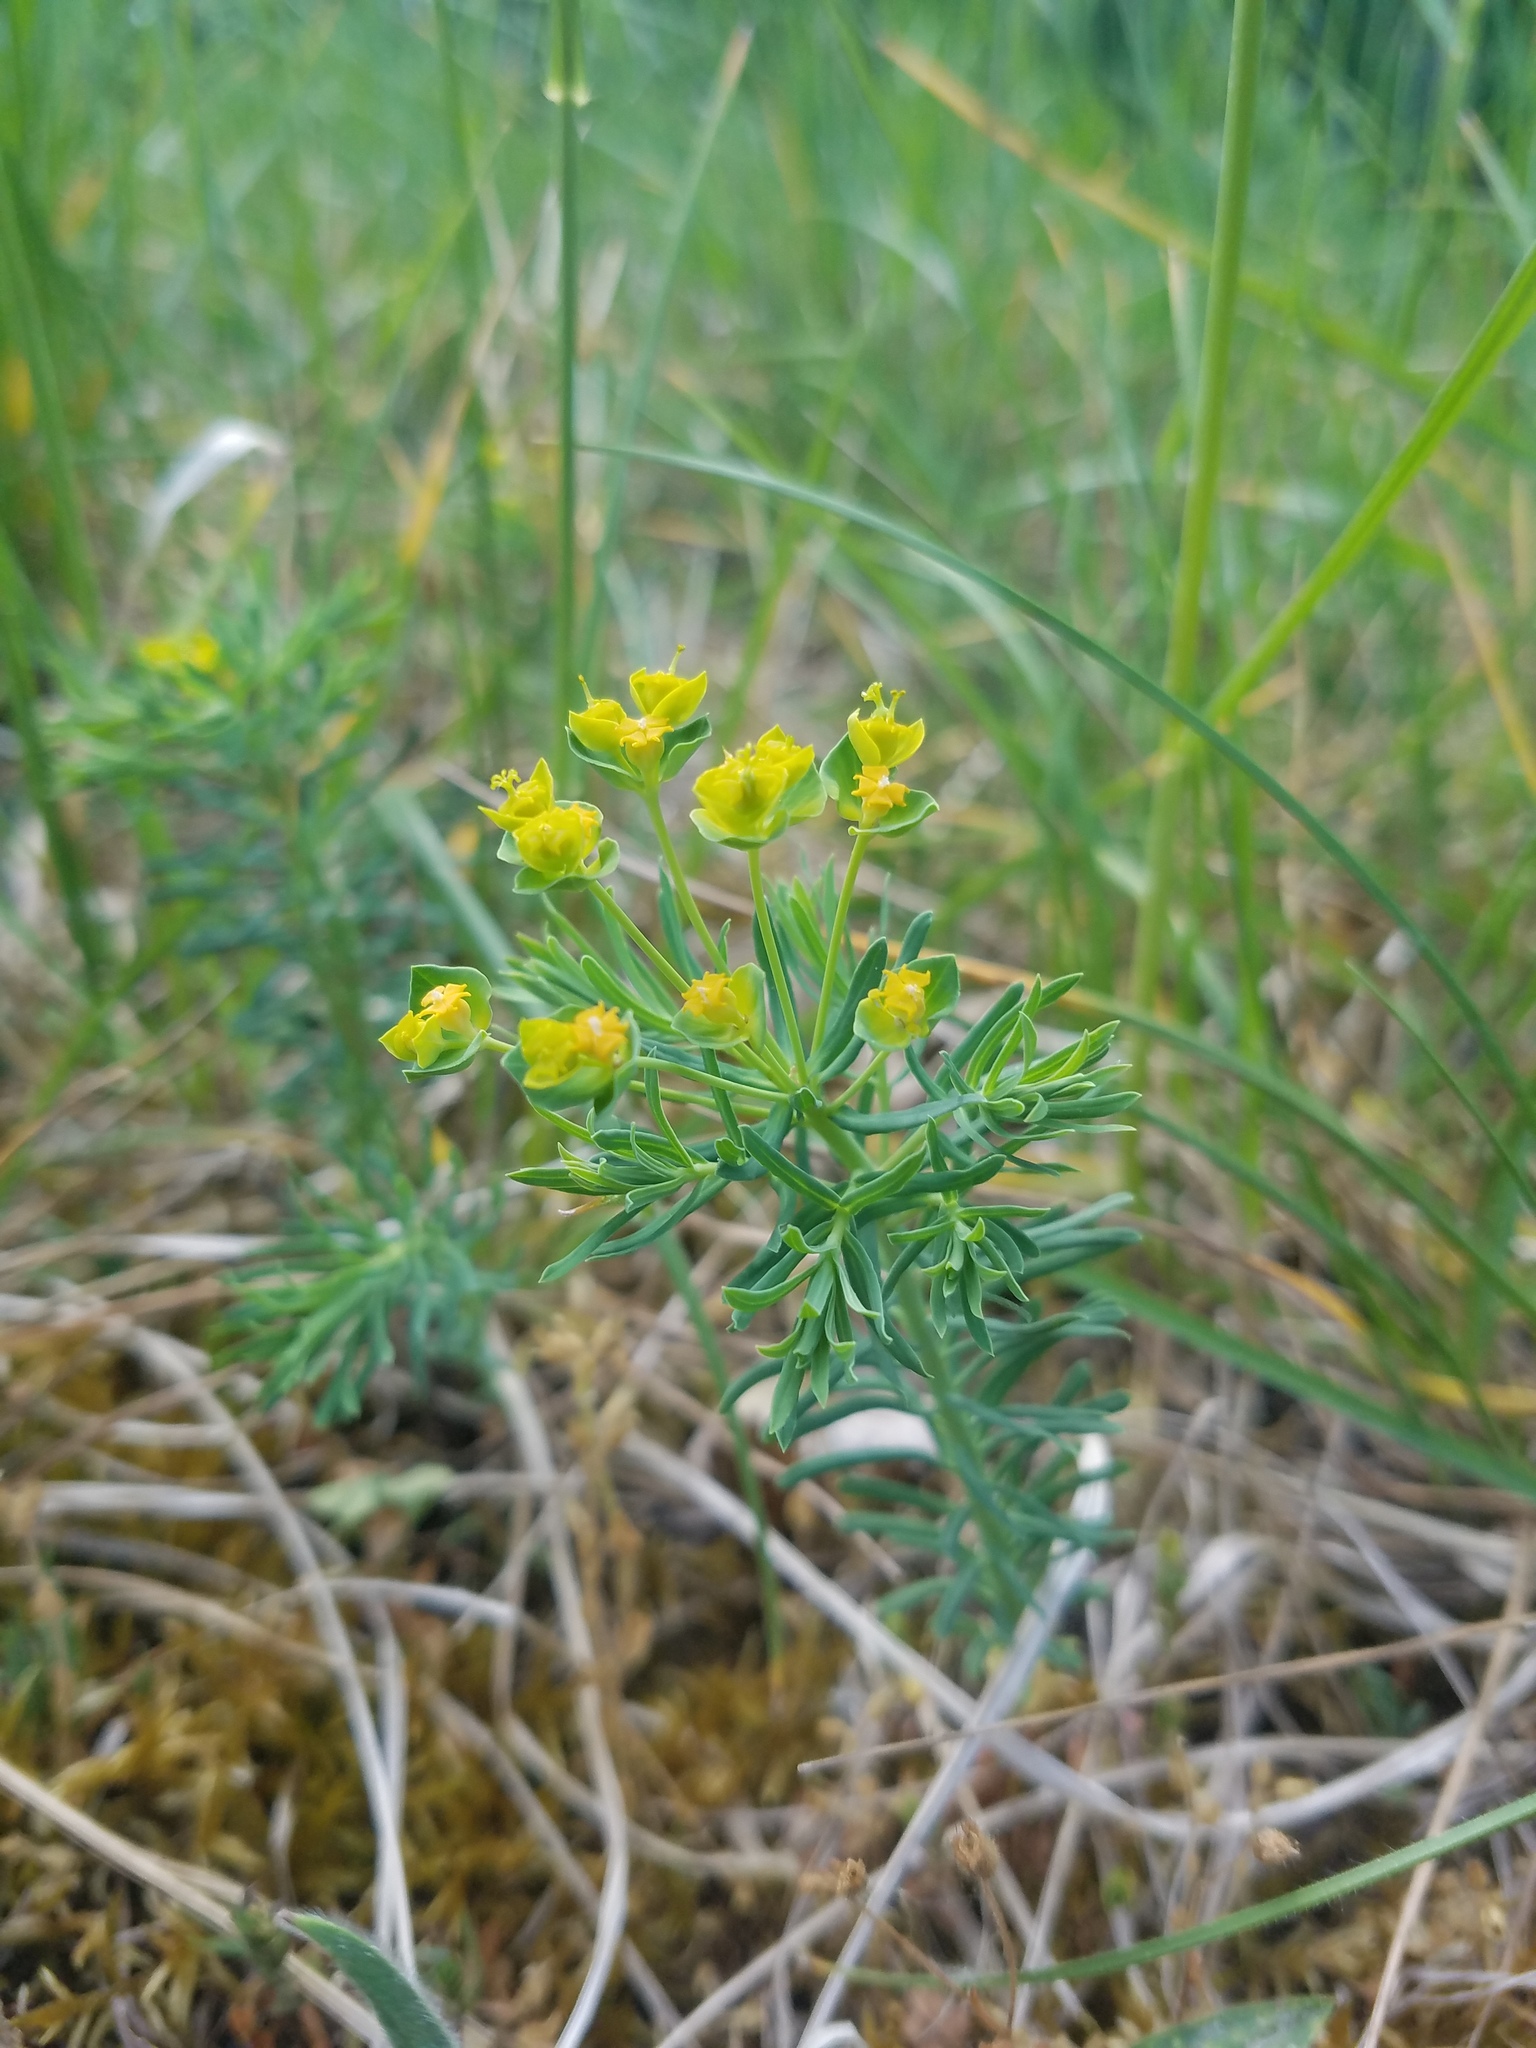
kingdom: Plantae
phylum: Tracheophyta
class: Magnoliopsida
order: Malpighiales
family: Euphorbiaceae
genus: Euphorbia
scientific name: Euphorbia cyparissias
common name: Cypress spurge
